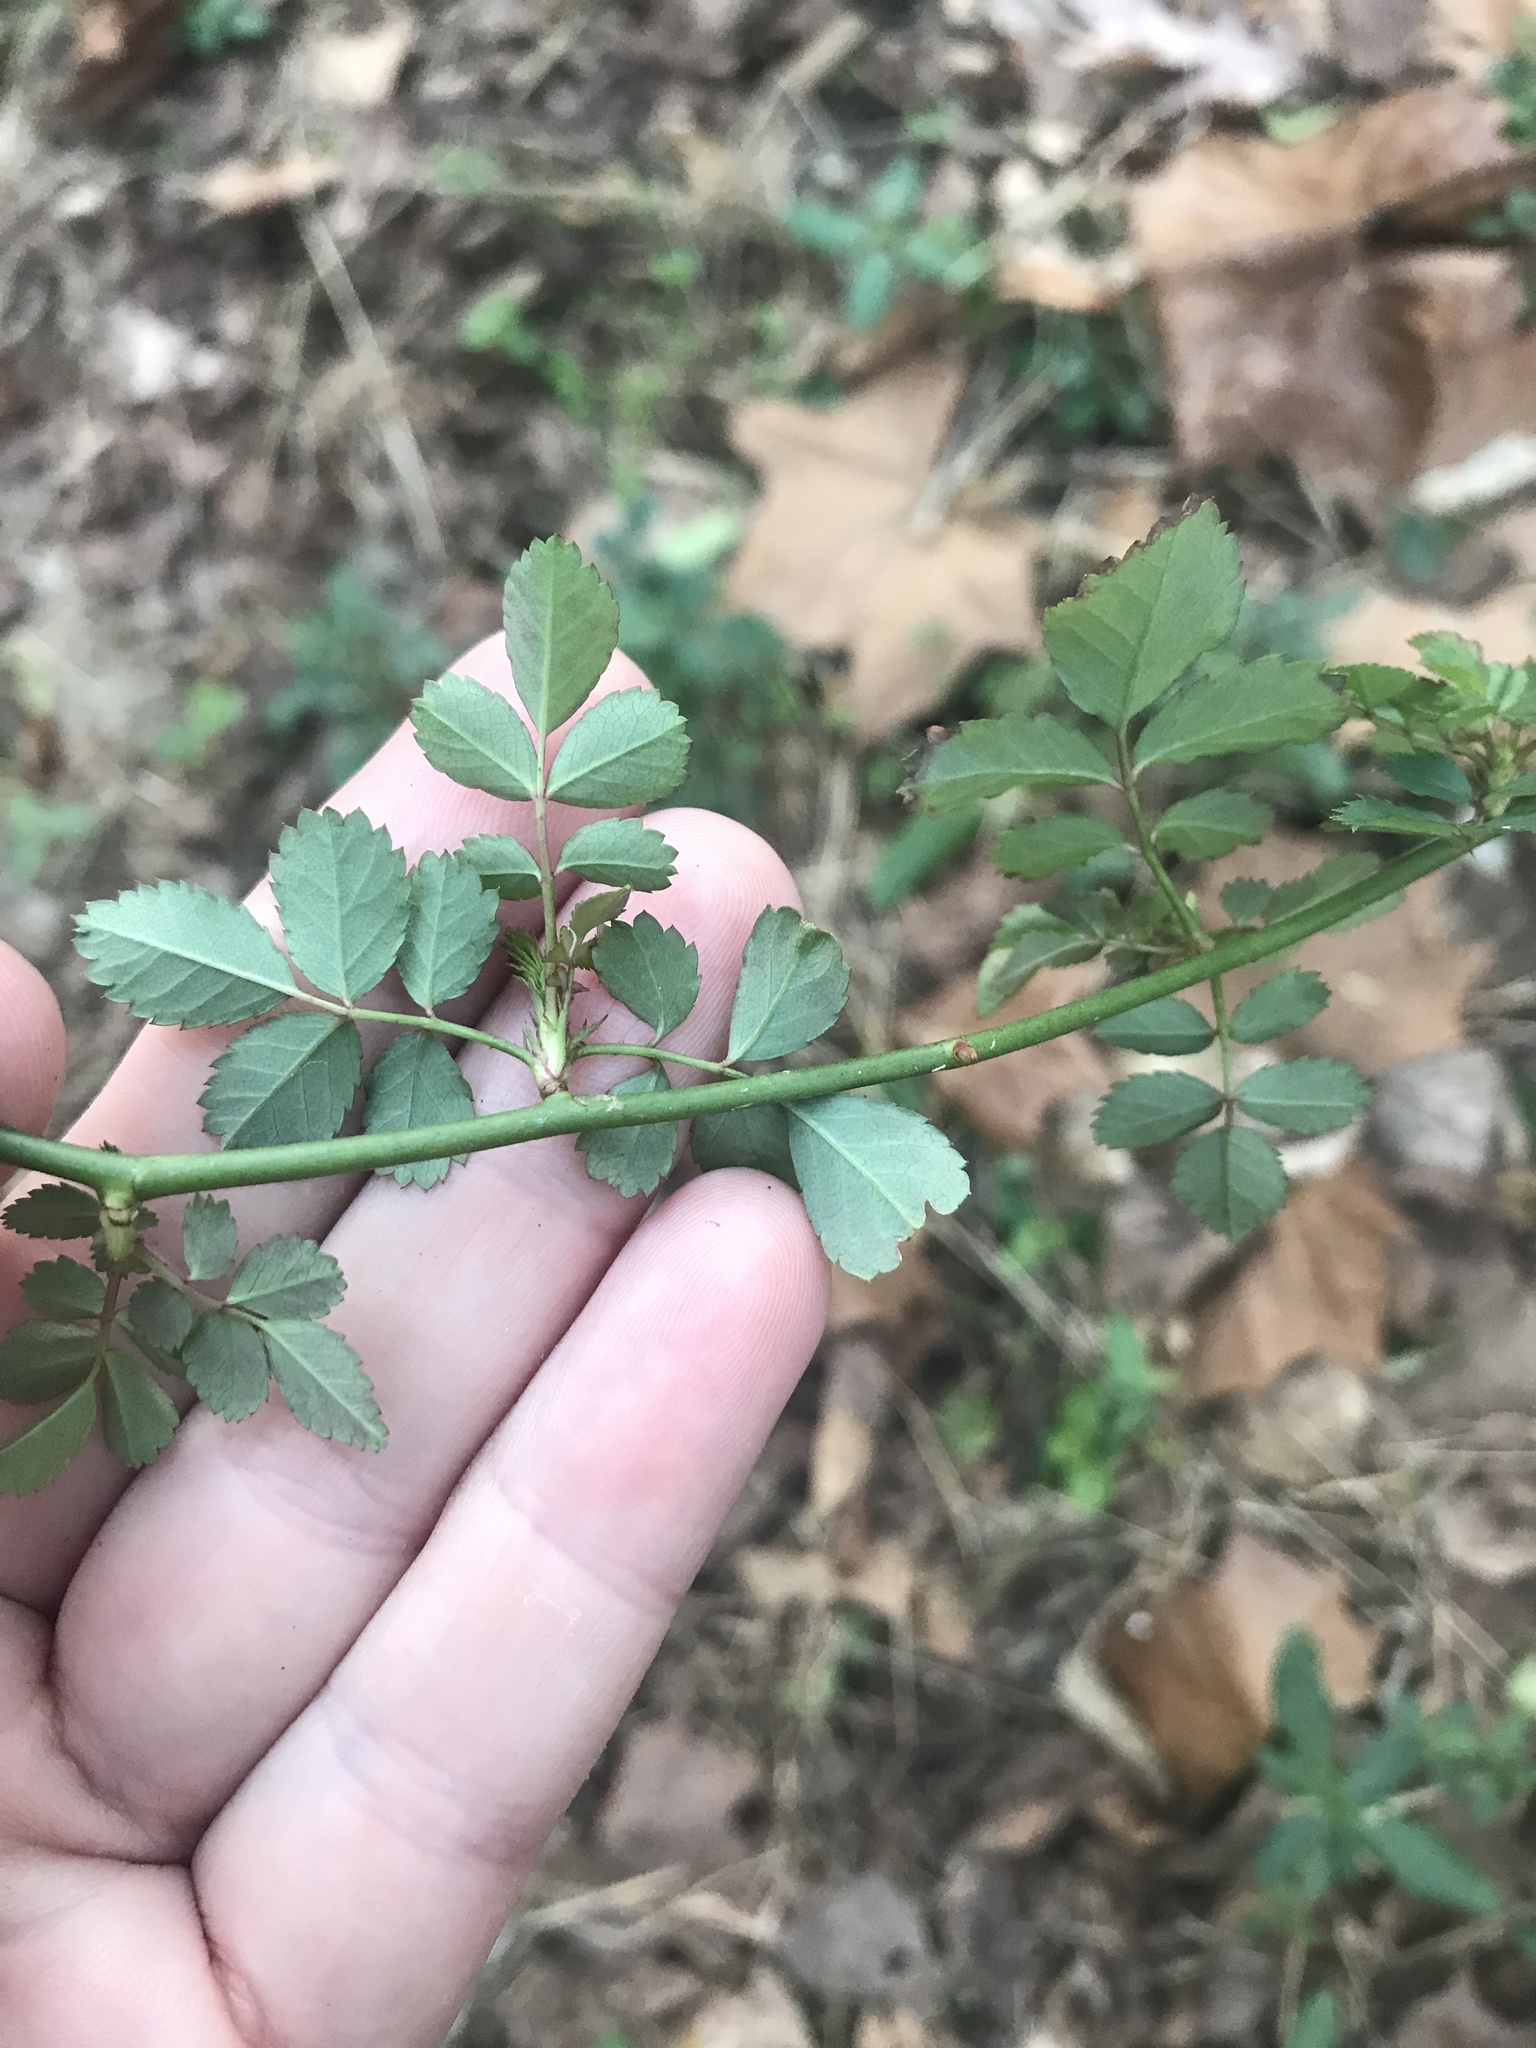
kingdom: Plantae
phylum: Tracheophyta
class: Magnoliopsida
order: Rosales
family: Rosaceae
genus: Rosa
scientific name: Rosa multiflora
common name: Multiflora rose
